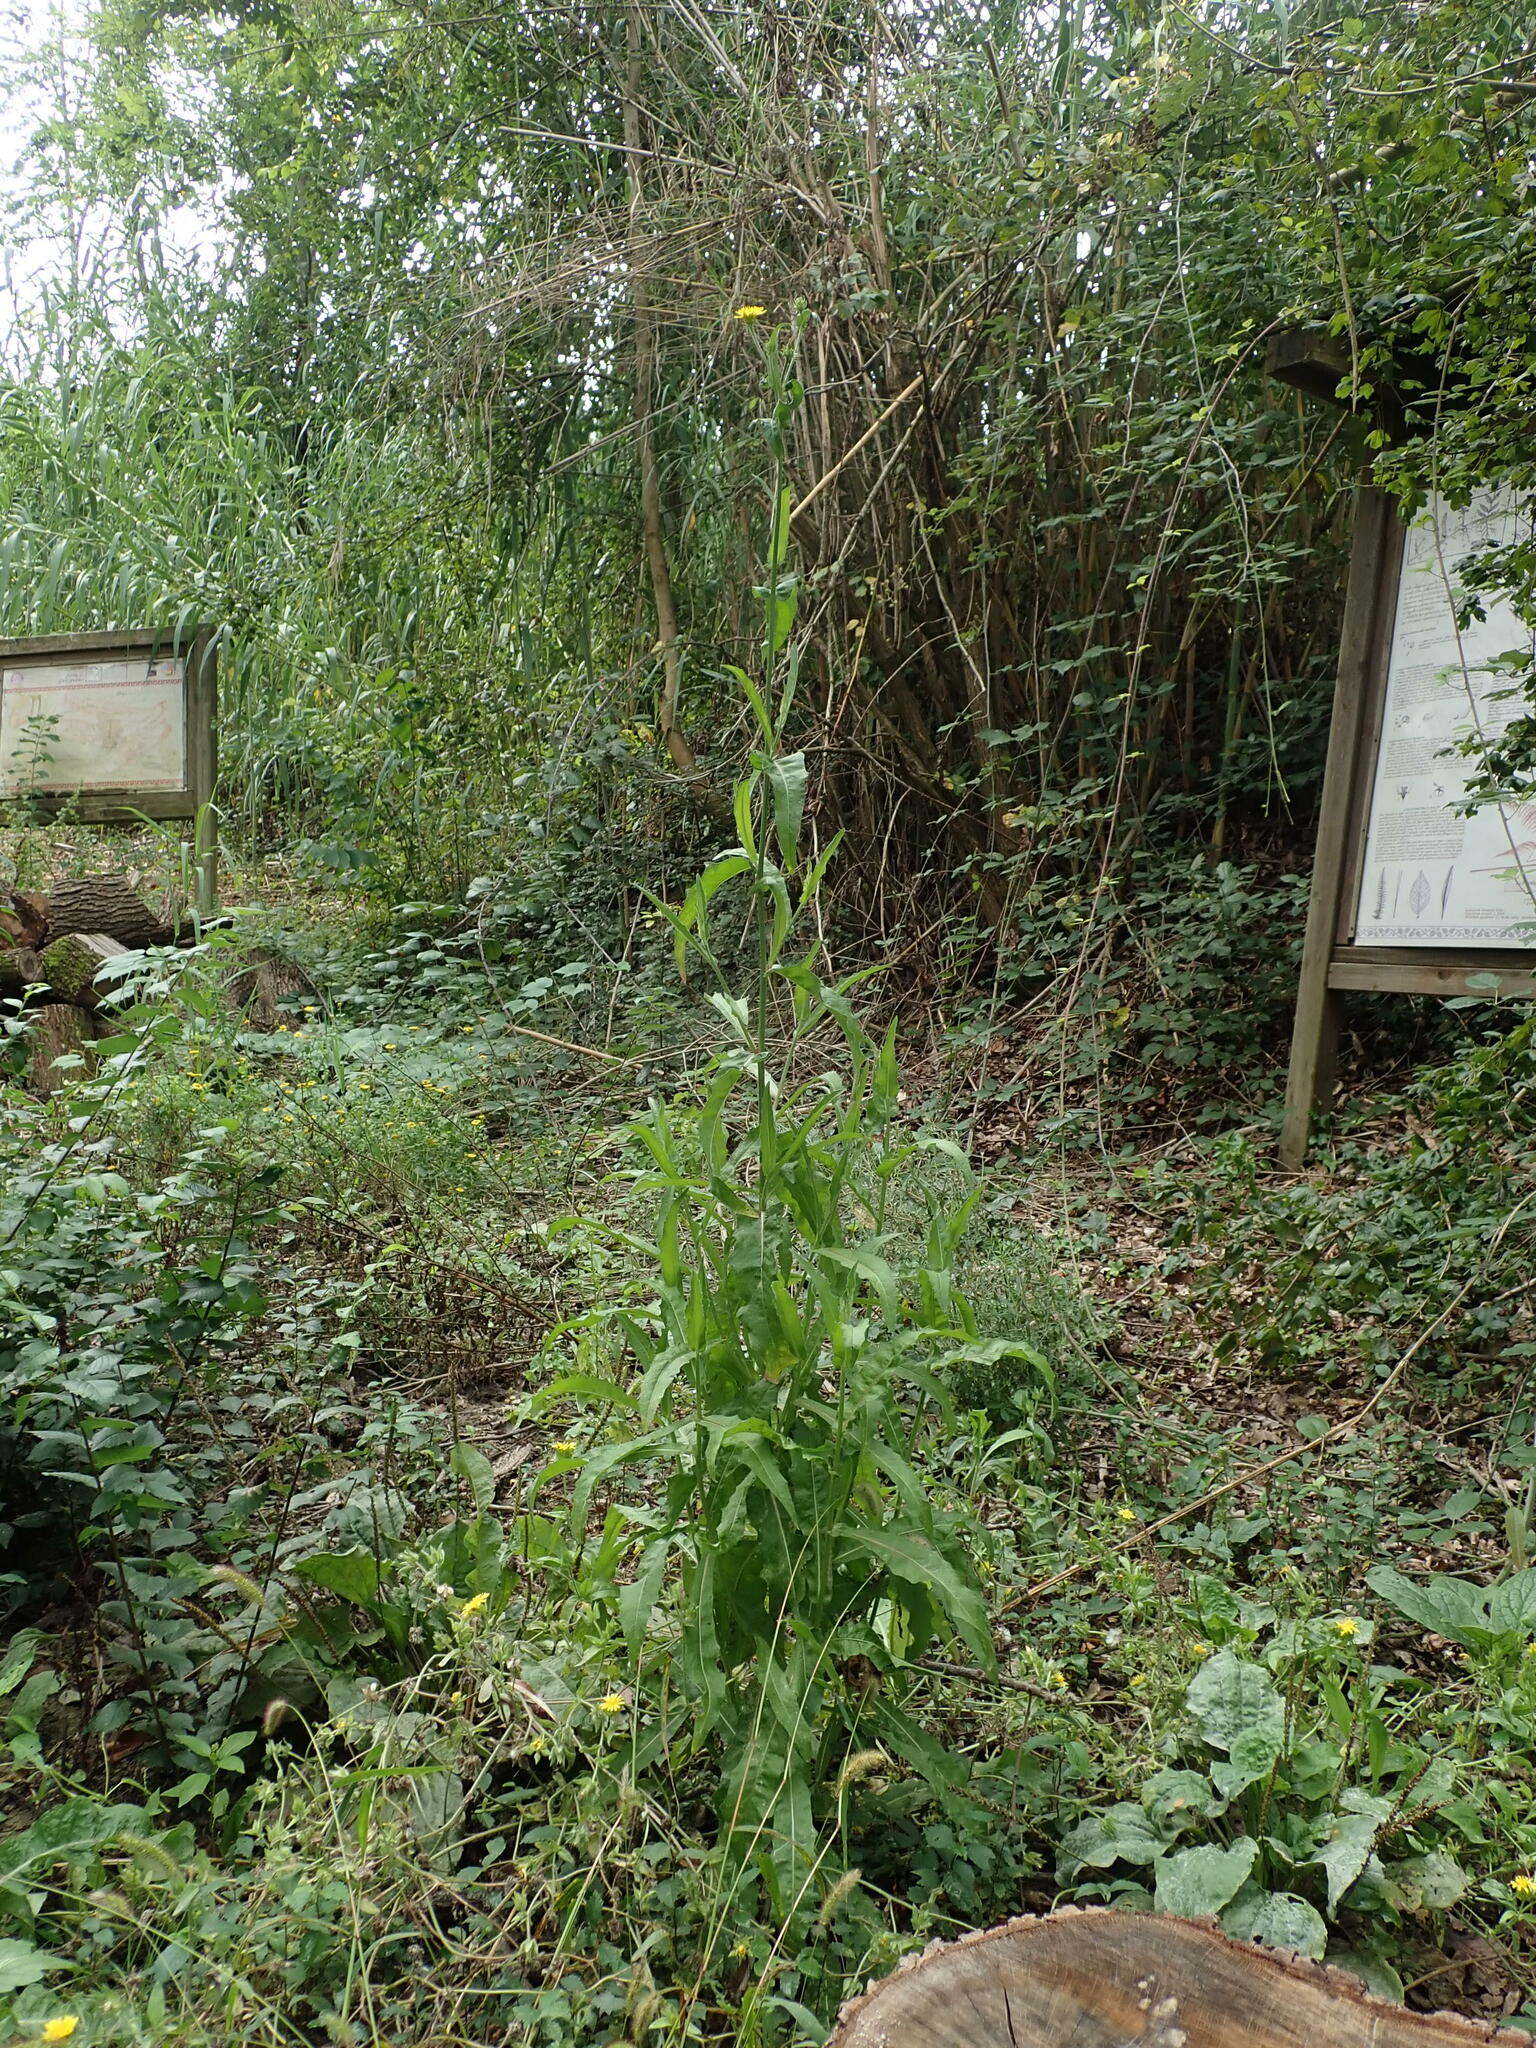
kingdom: Plantae
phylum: Tracheophyta
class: Magnoliopsida
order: Asterales
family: Asteraceae
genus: Picris
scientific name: Picris hieracioides
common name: Hawkweed oxtongue
